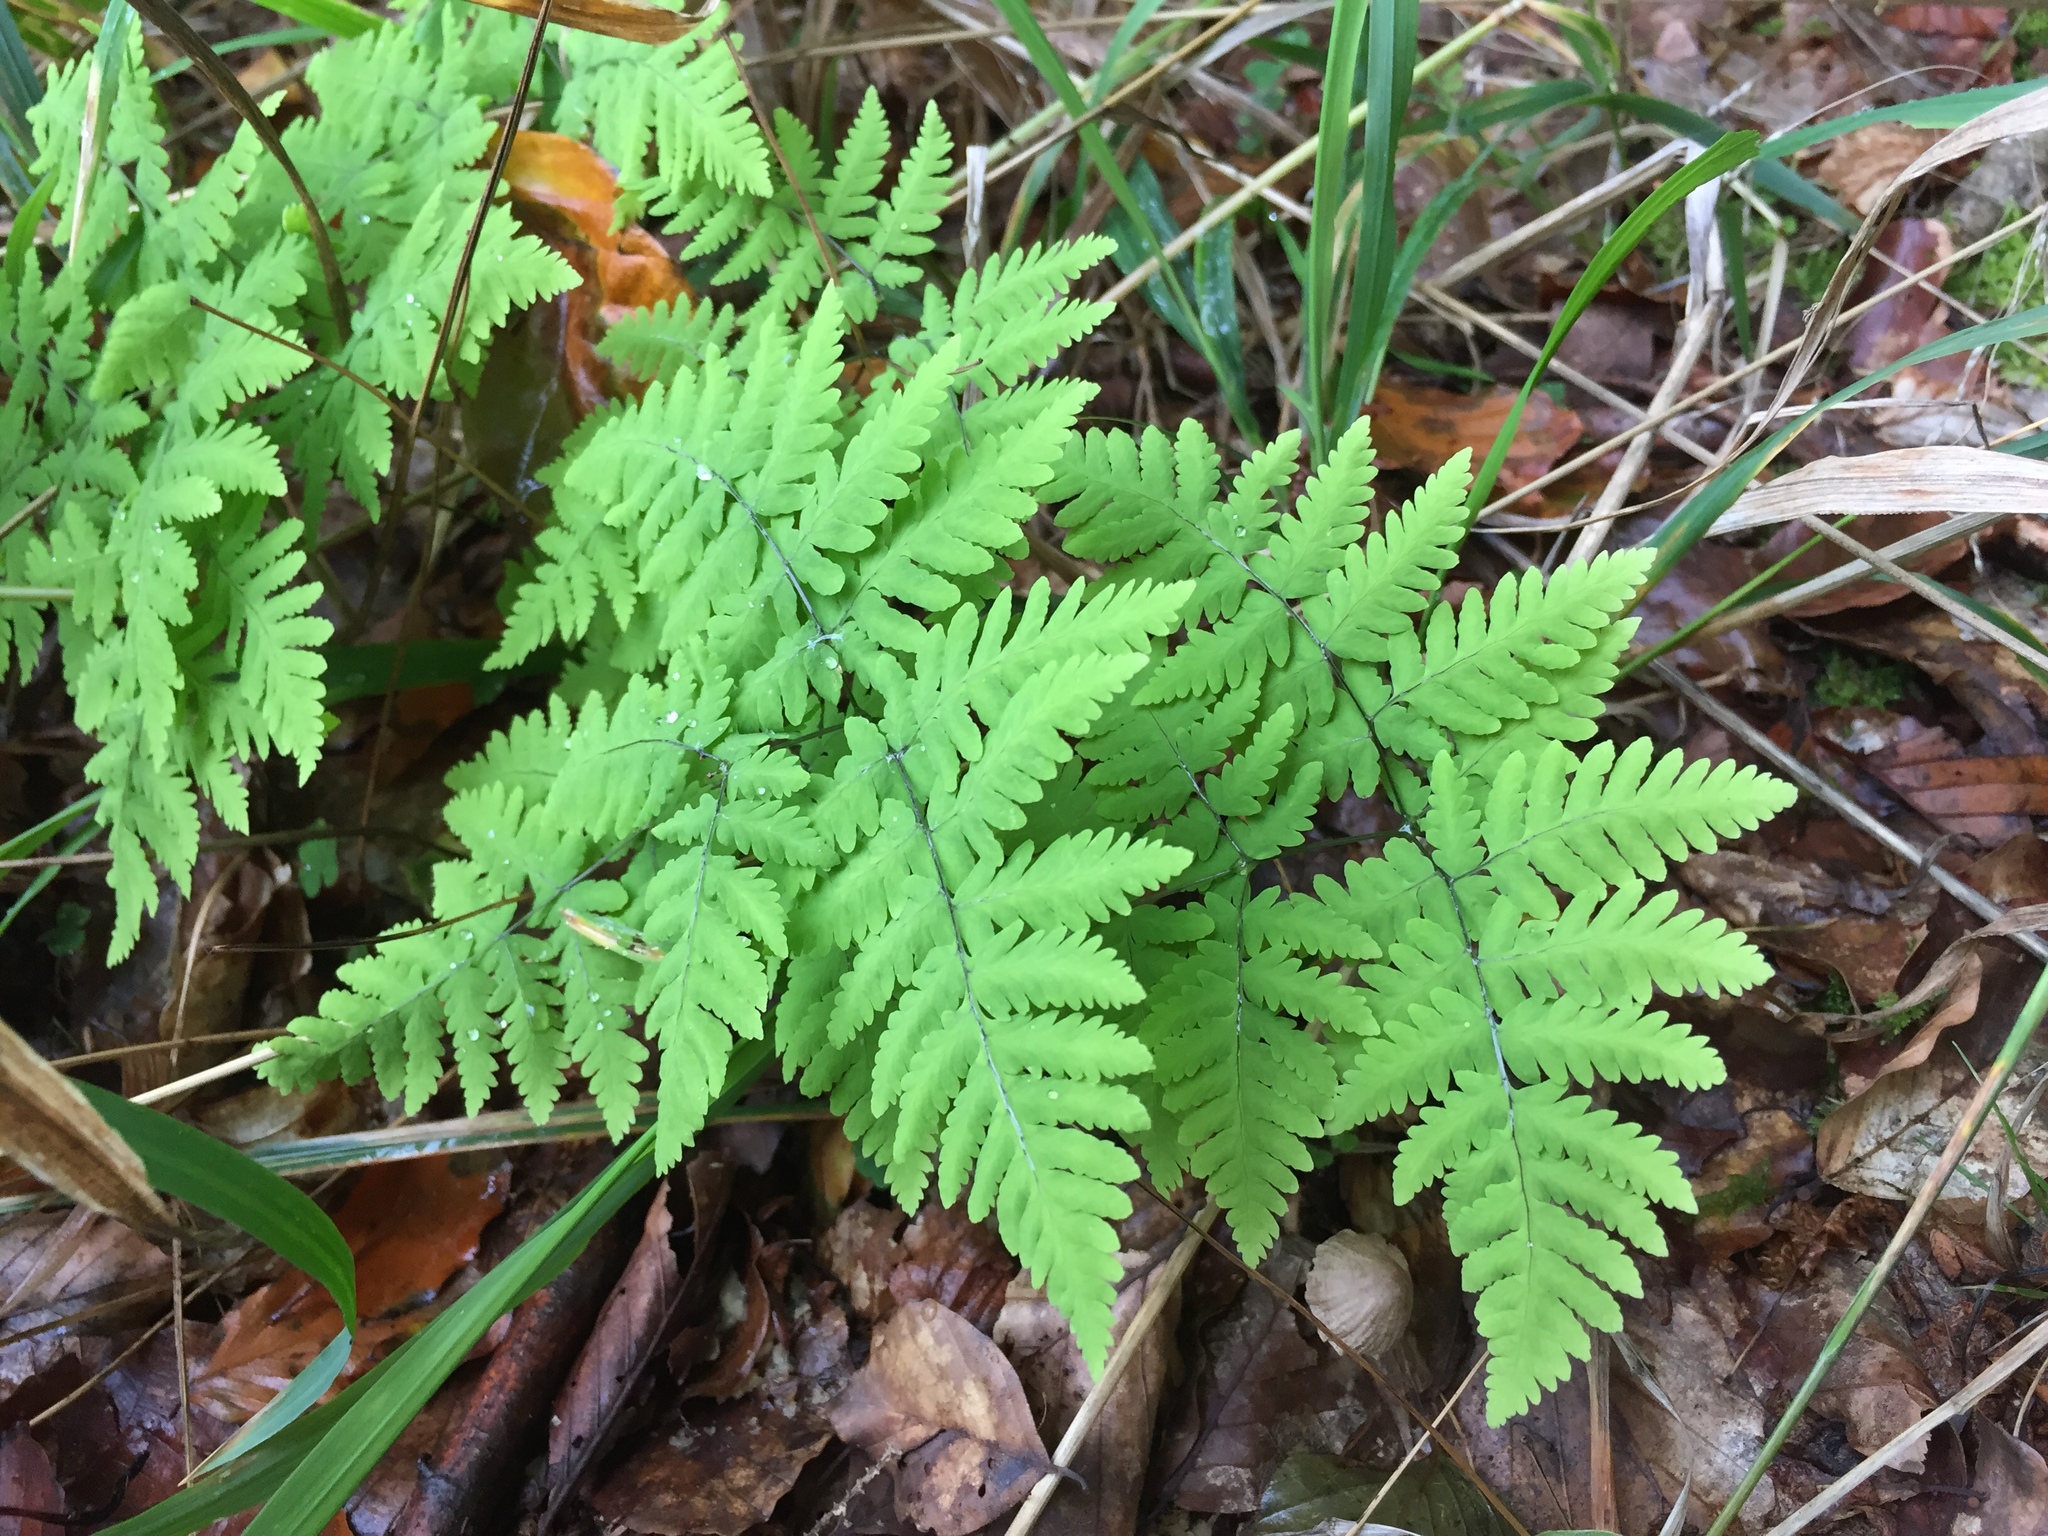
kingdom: Plantae
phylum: Tracheophyta
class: Polypodiopsida
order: Polypodiales
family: Cystopteridaceae
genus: Gymnocarpium
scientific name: Gymnocarpium dryopteris
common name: Oak fern
